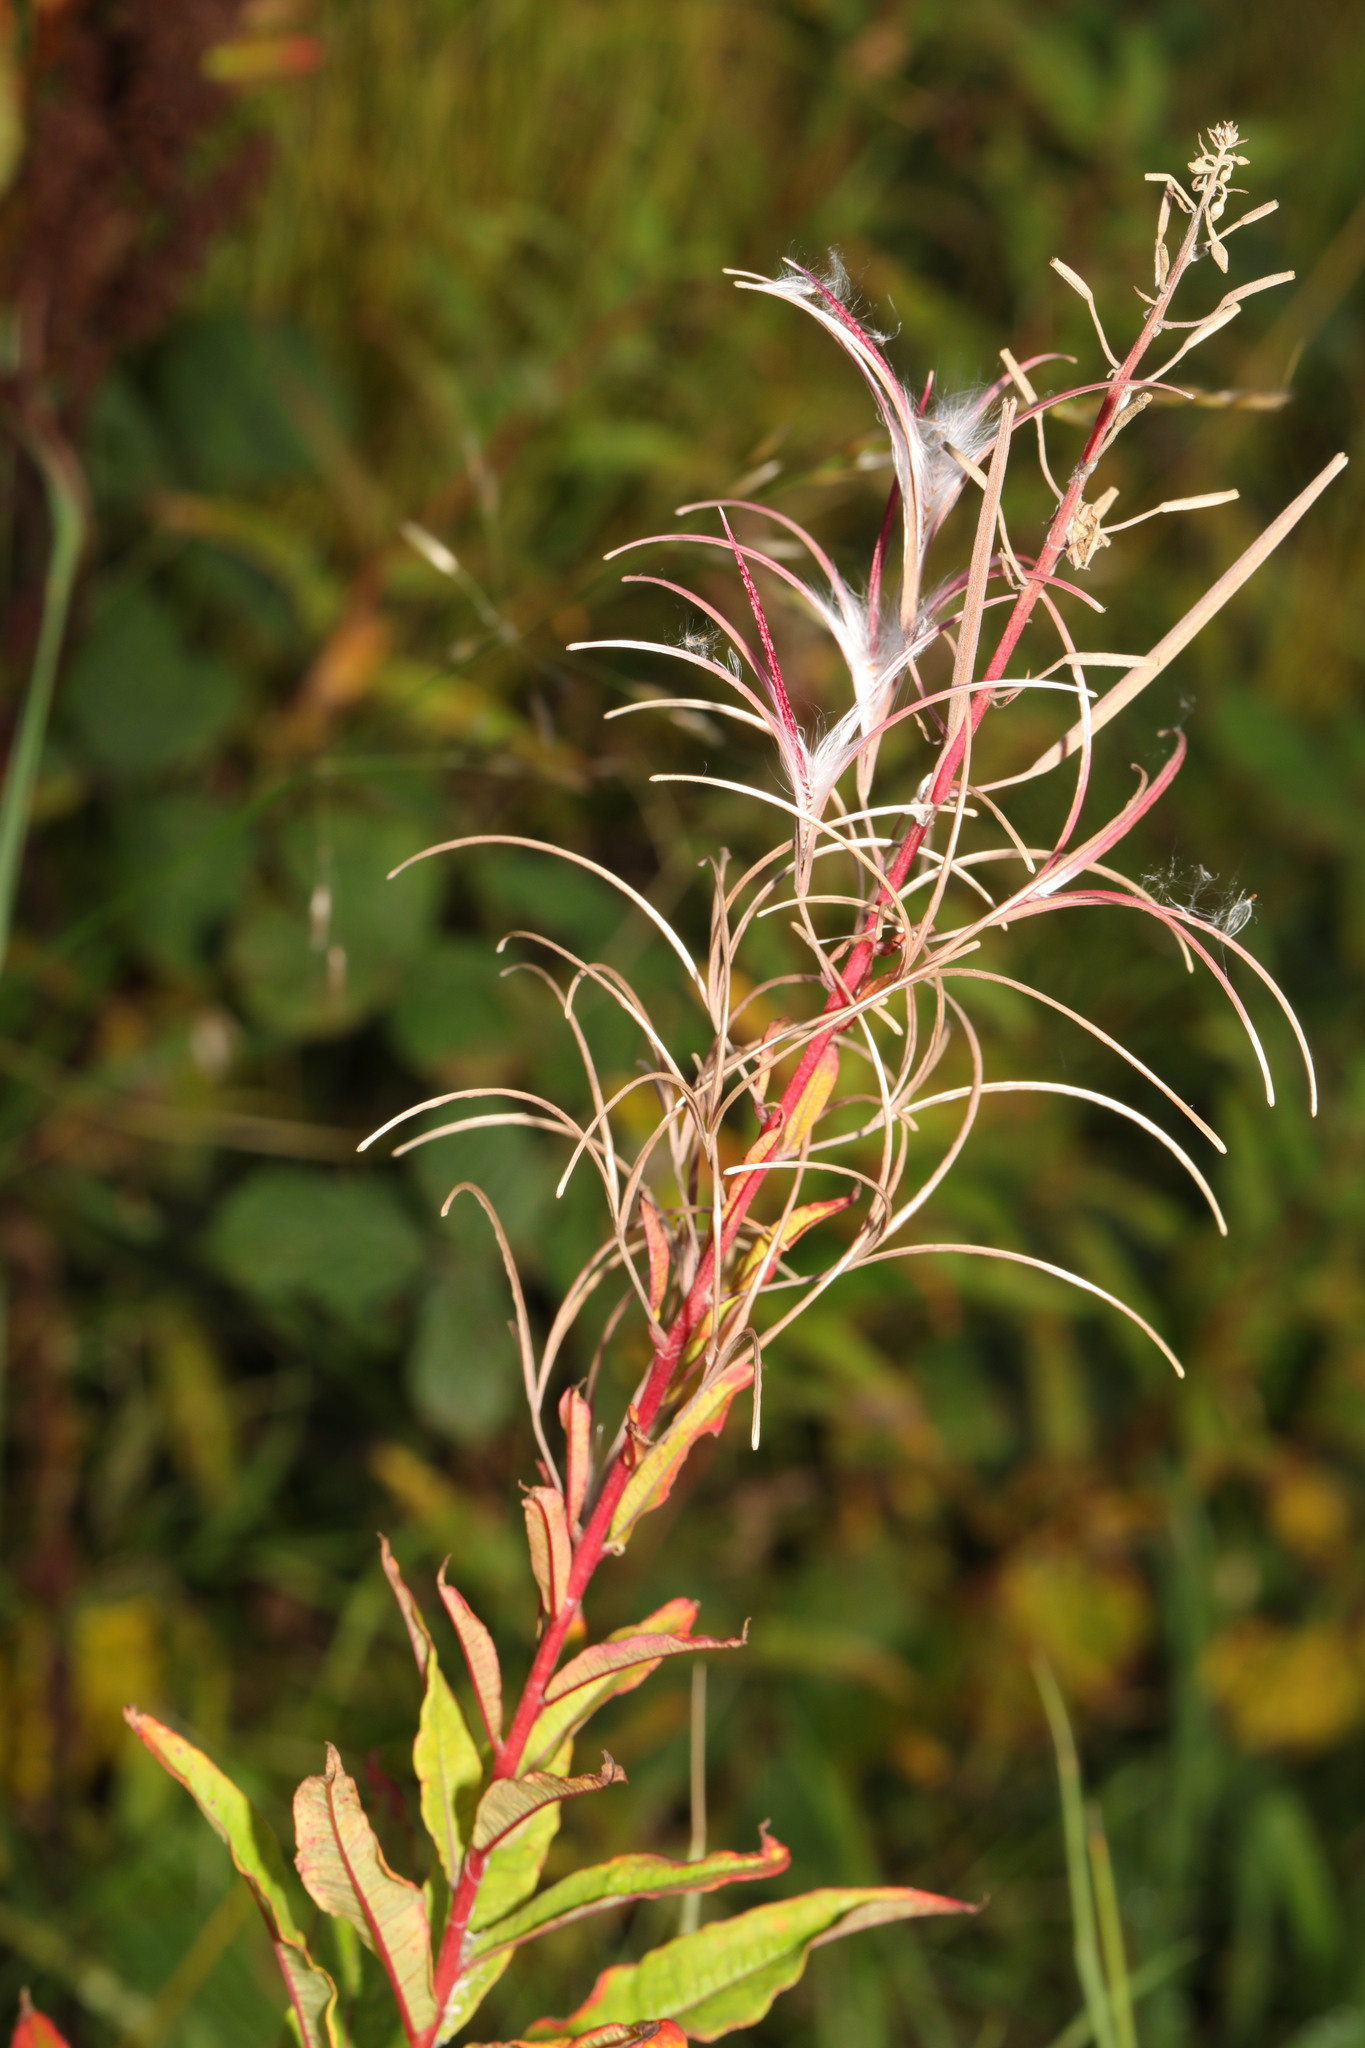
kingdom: Plantae
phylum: Tracheophyta
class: Magnoliopsida
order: Myrtales
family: Onagraceae
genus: Chamaenerion
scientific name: Chamaenerion angustifolium
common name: Fireweed
